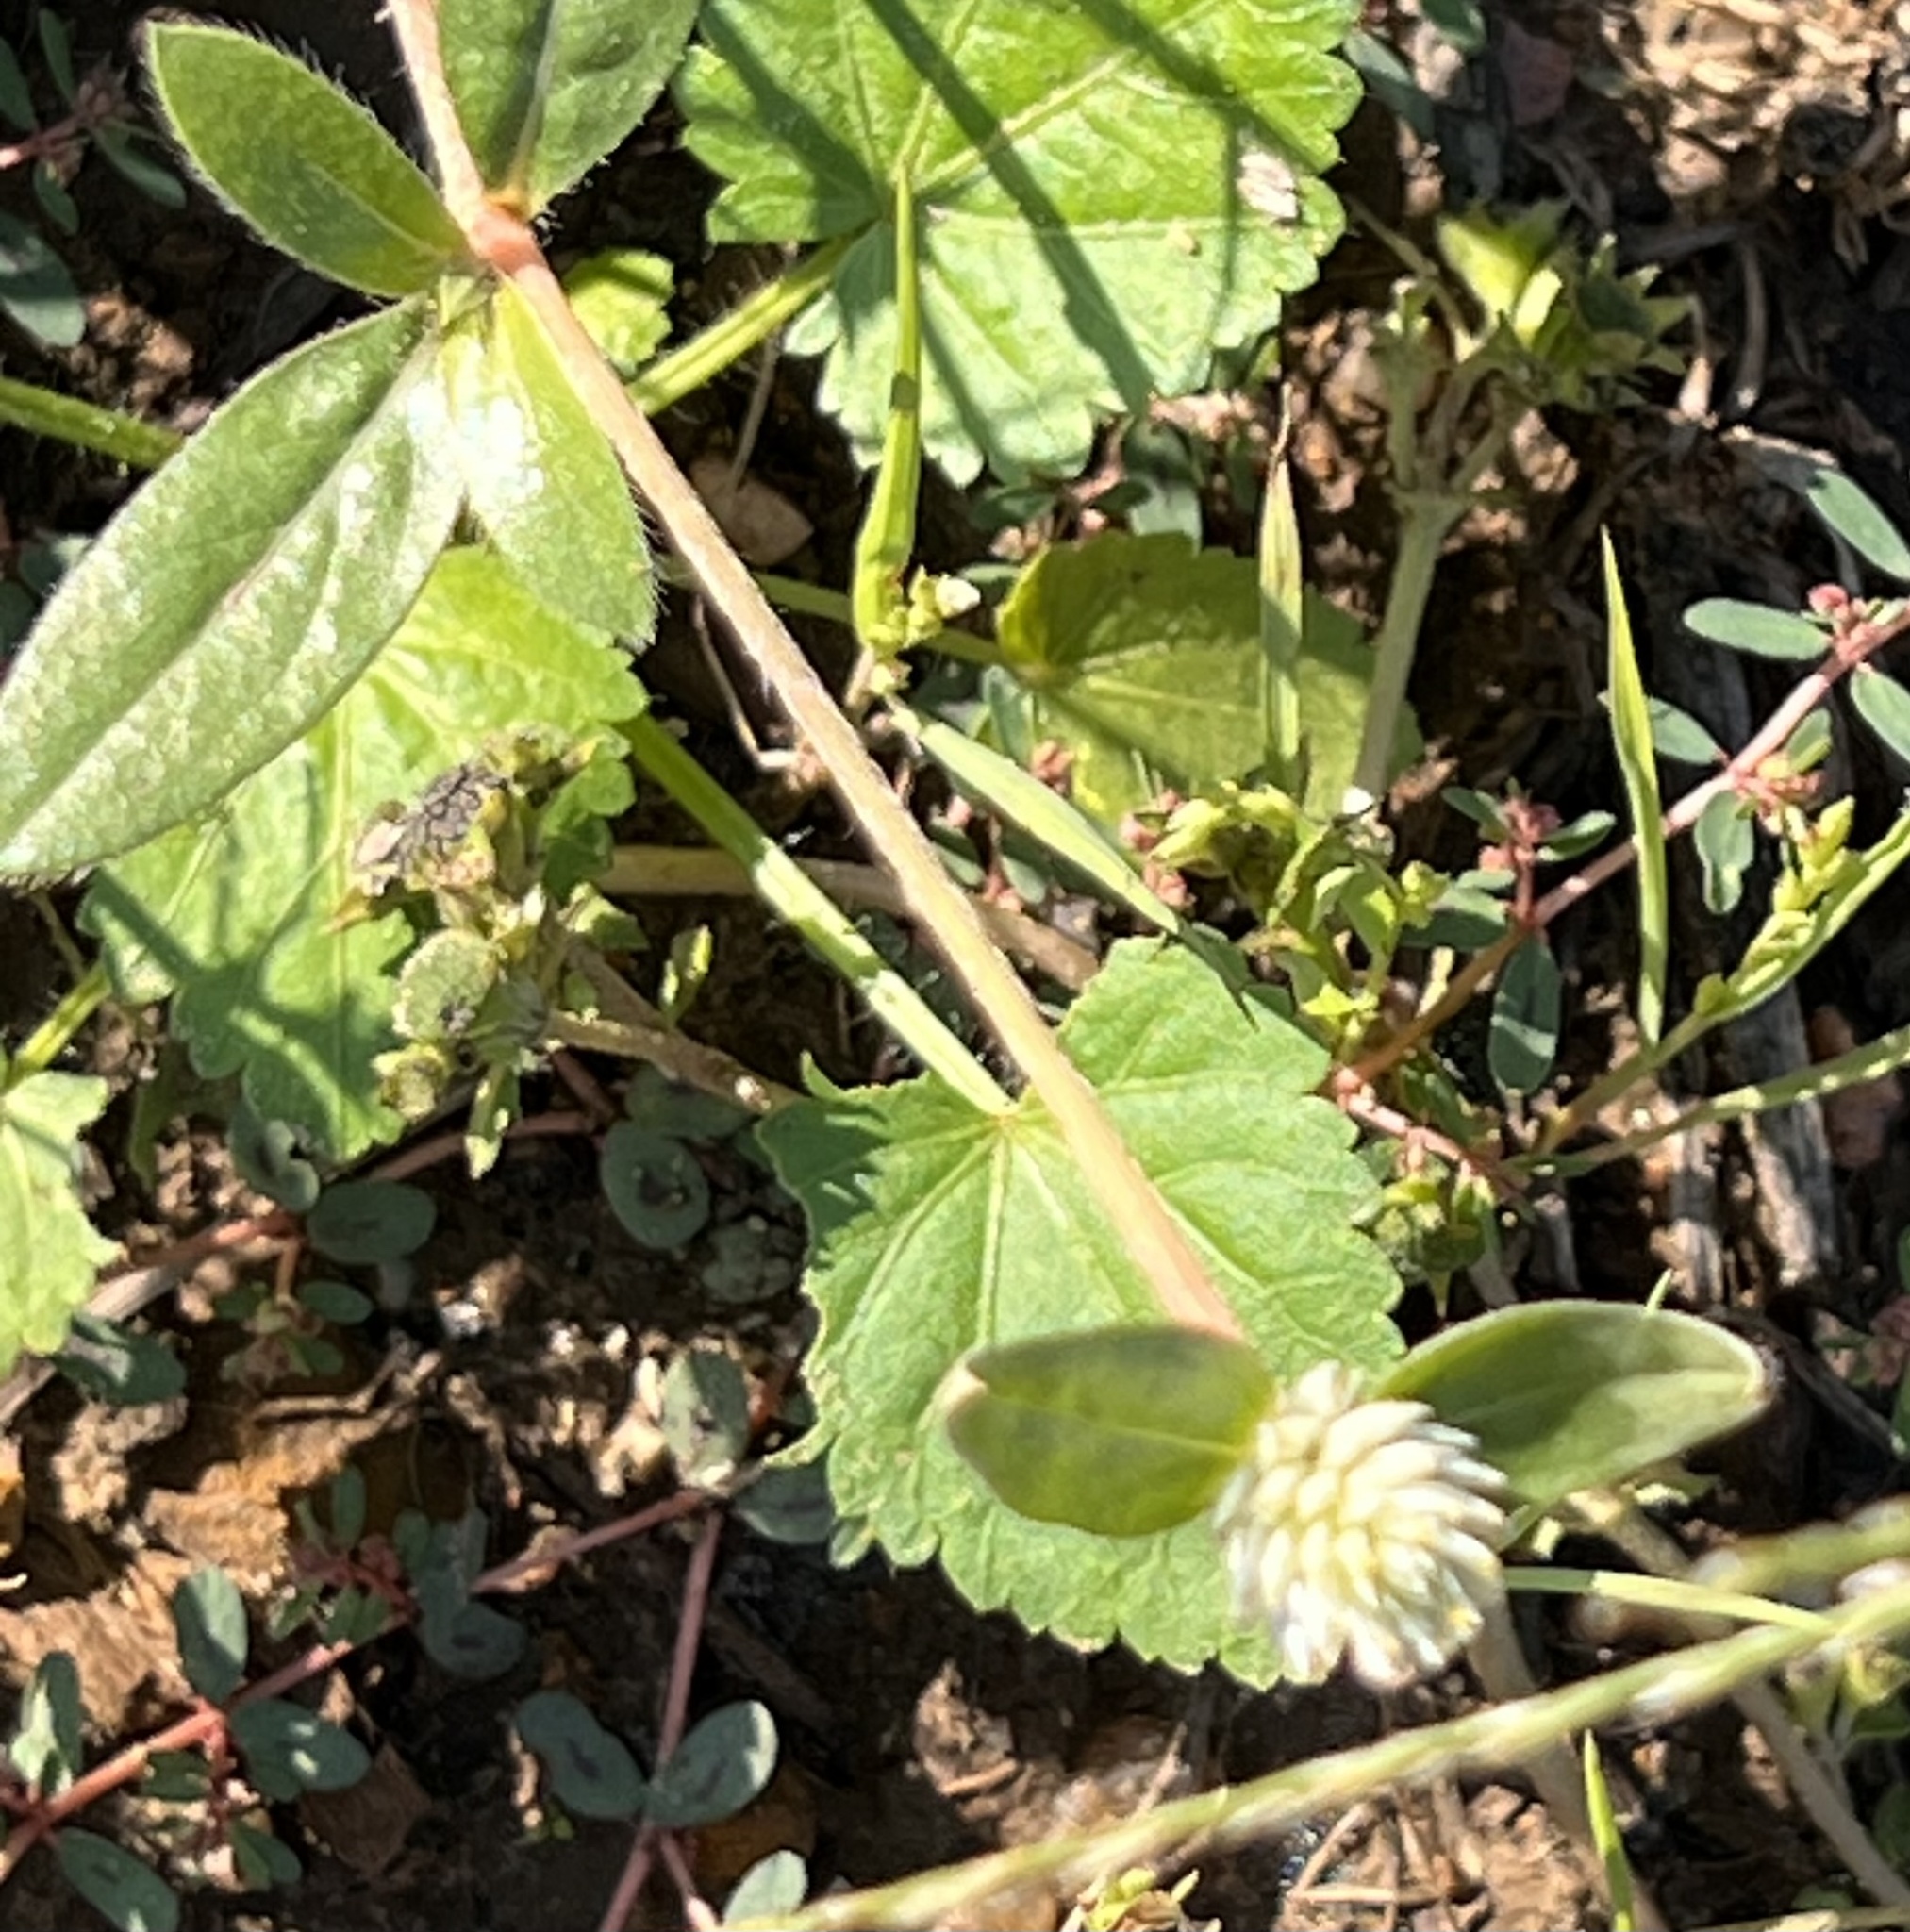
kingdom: Plantae
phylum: Tracheophyta
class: Magnoliopsida
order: Caryophyllales
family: Amaranthaceae
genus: Gomphrena
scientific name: Gomphrena serrata
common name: Arrasa con todo
